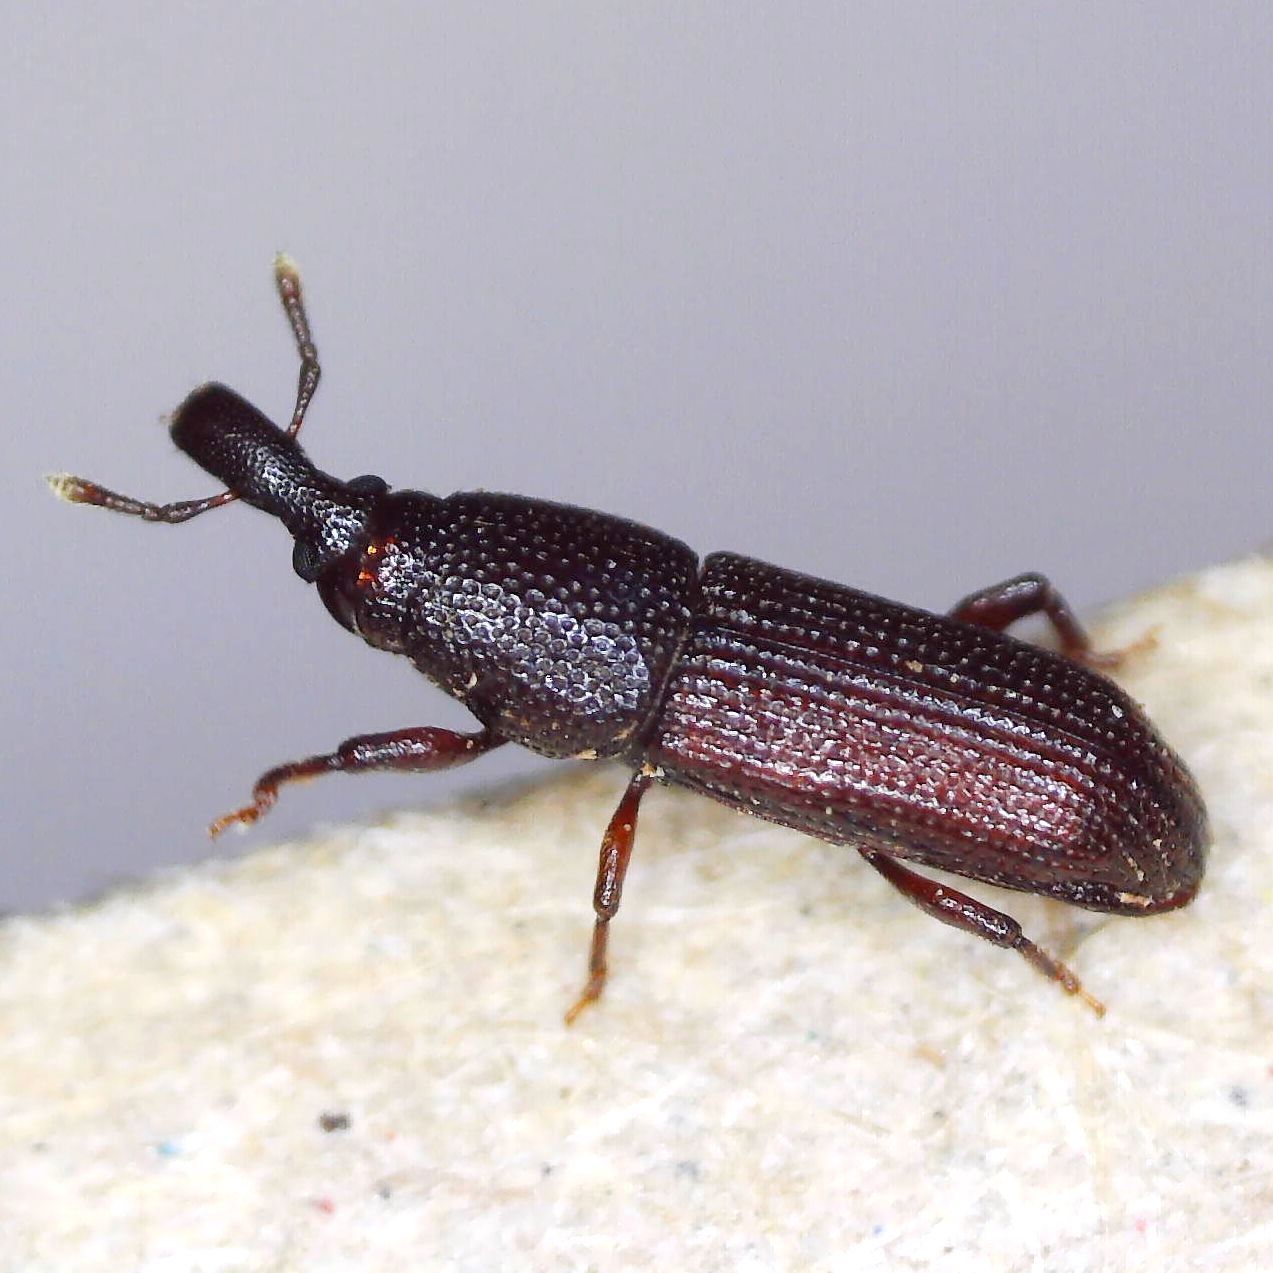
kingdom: Animalia
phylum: Arthropoda
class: Insecta
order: Coleoptera
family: Curculionidae
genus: Pentarthrum
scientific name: Pentarthrum confine
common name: Weevil
